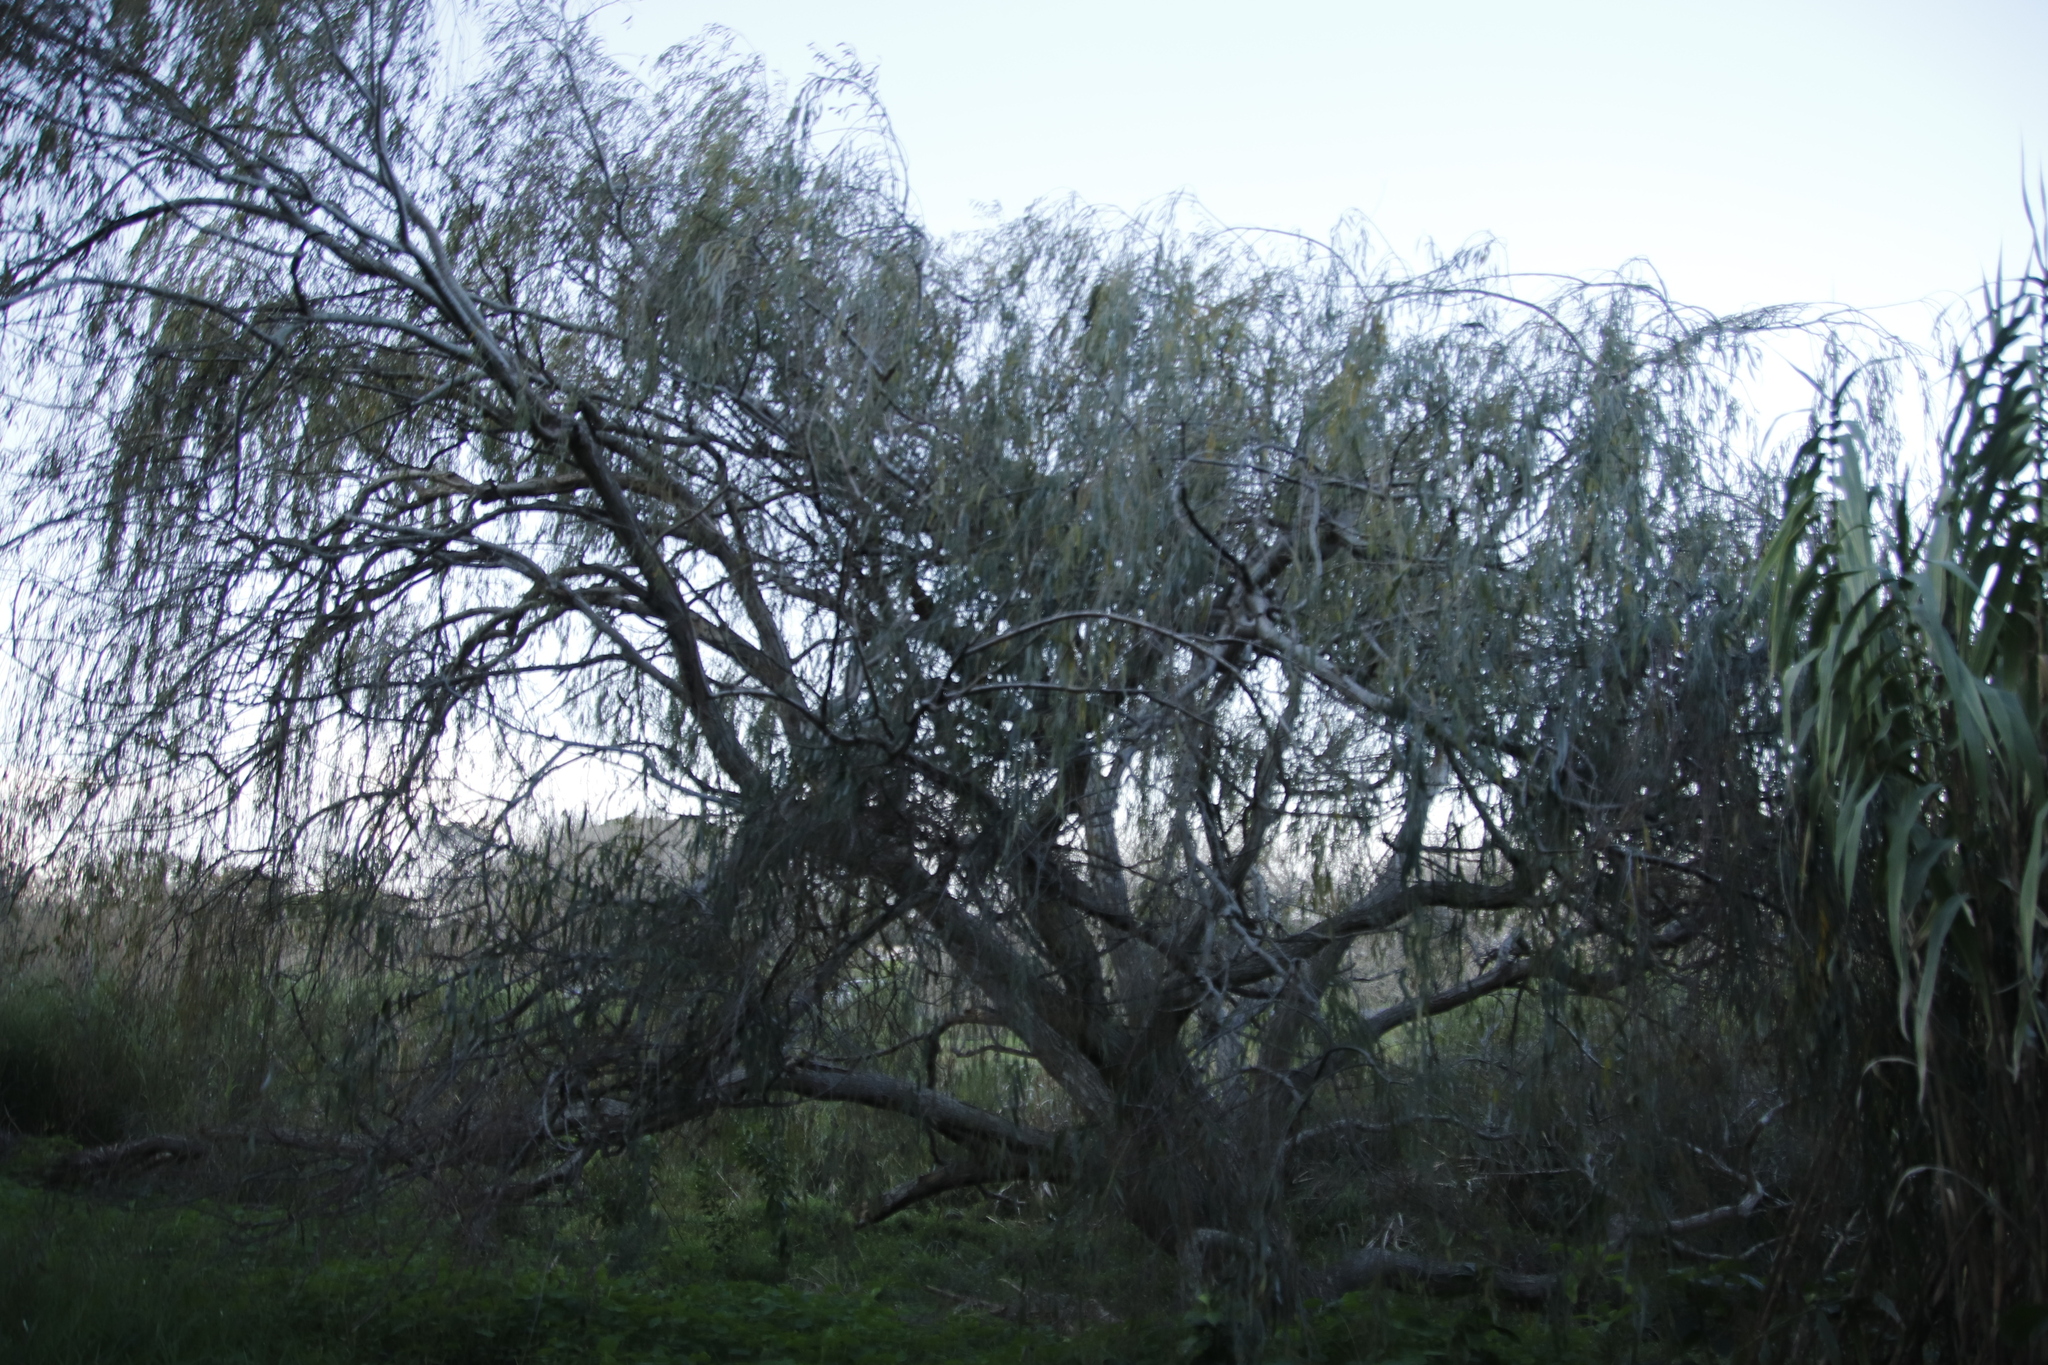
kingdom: Plantae
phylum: Tracheophyta
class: Magnoliopsida
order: Malpighiales
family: Salicaceae
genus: Salix
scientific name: Salix babylonica
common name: Weeping willow
